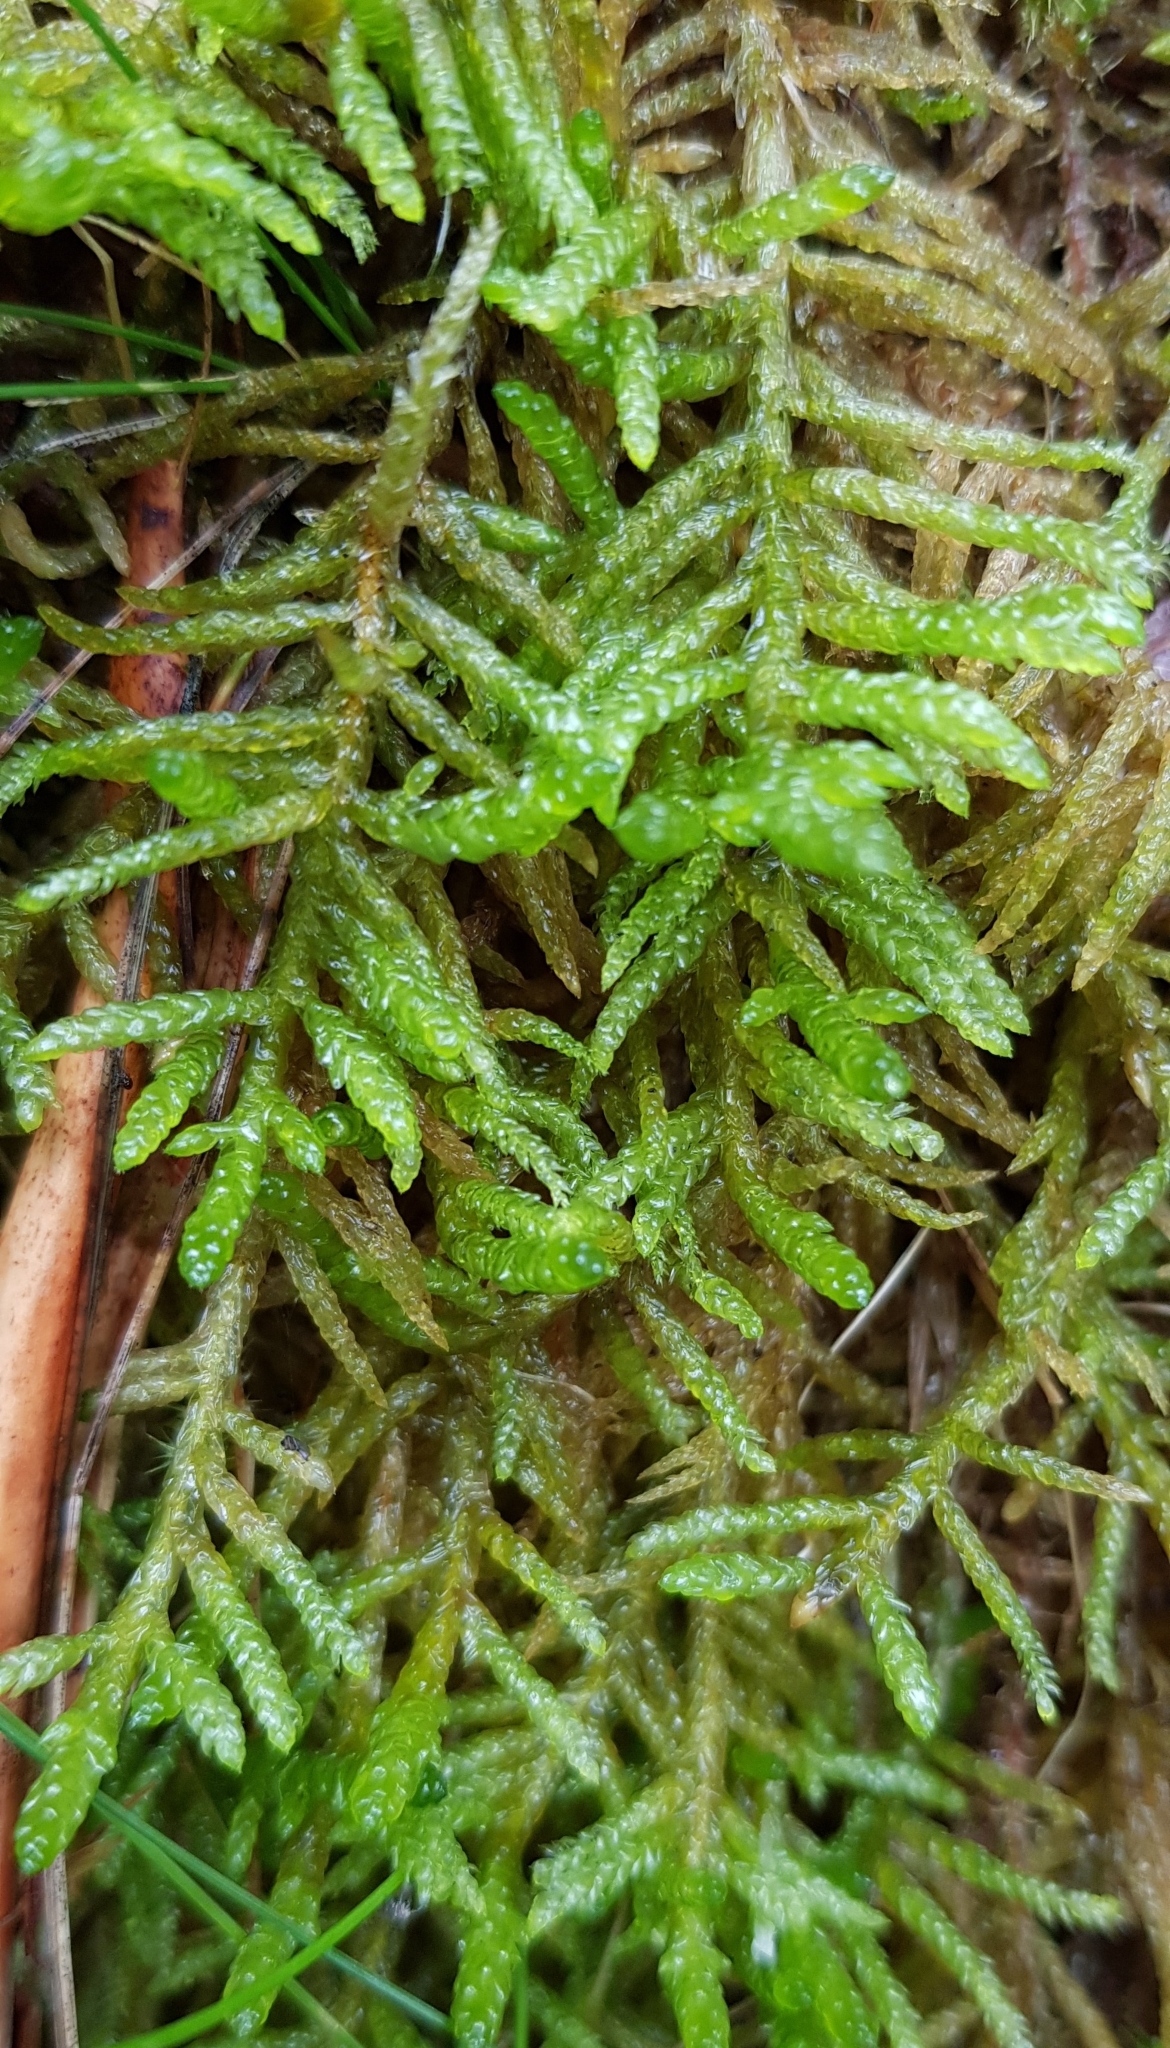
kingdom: Plantae
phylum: Bryophyta
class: Bryopsida
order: Hypnales
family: Brachytheciaceae
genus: Pseudoscleropodium
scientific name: Pseudoscleropodium purum
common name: Neat feather-moss
